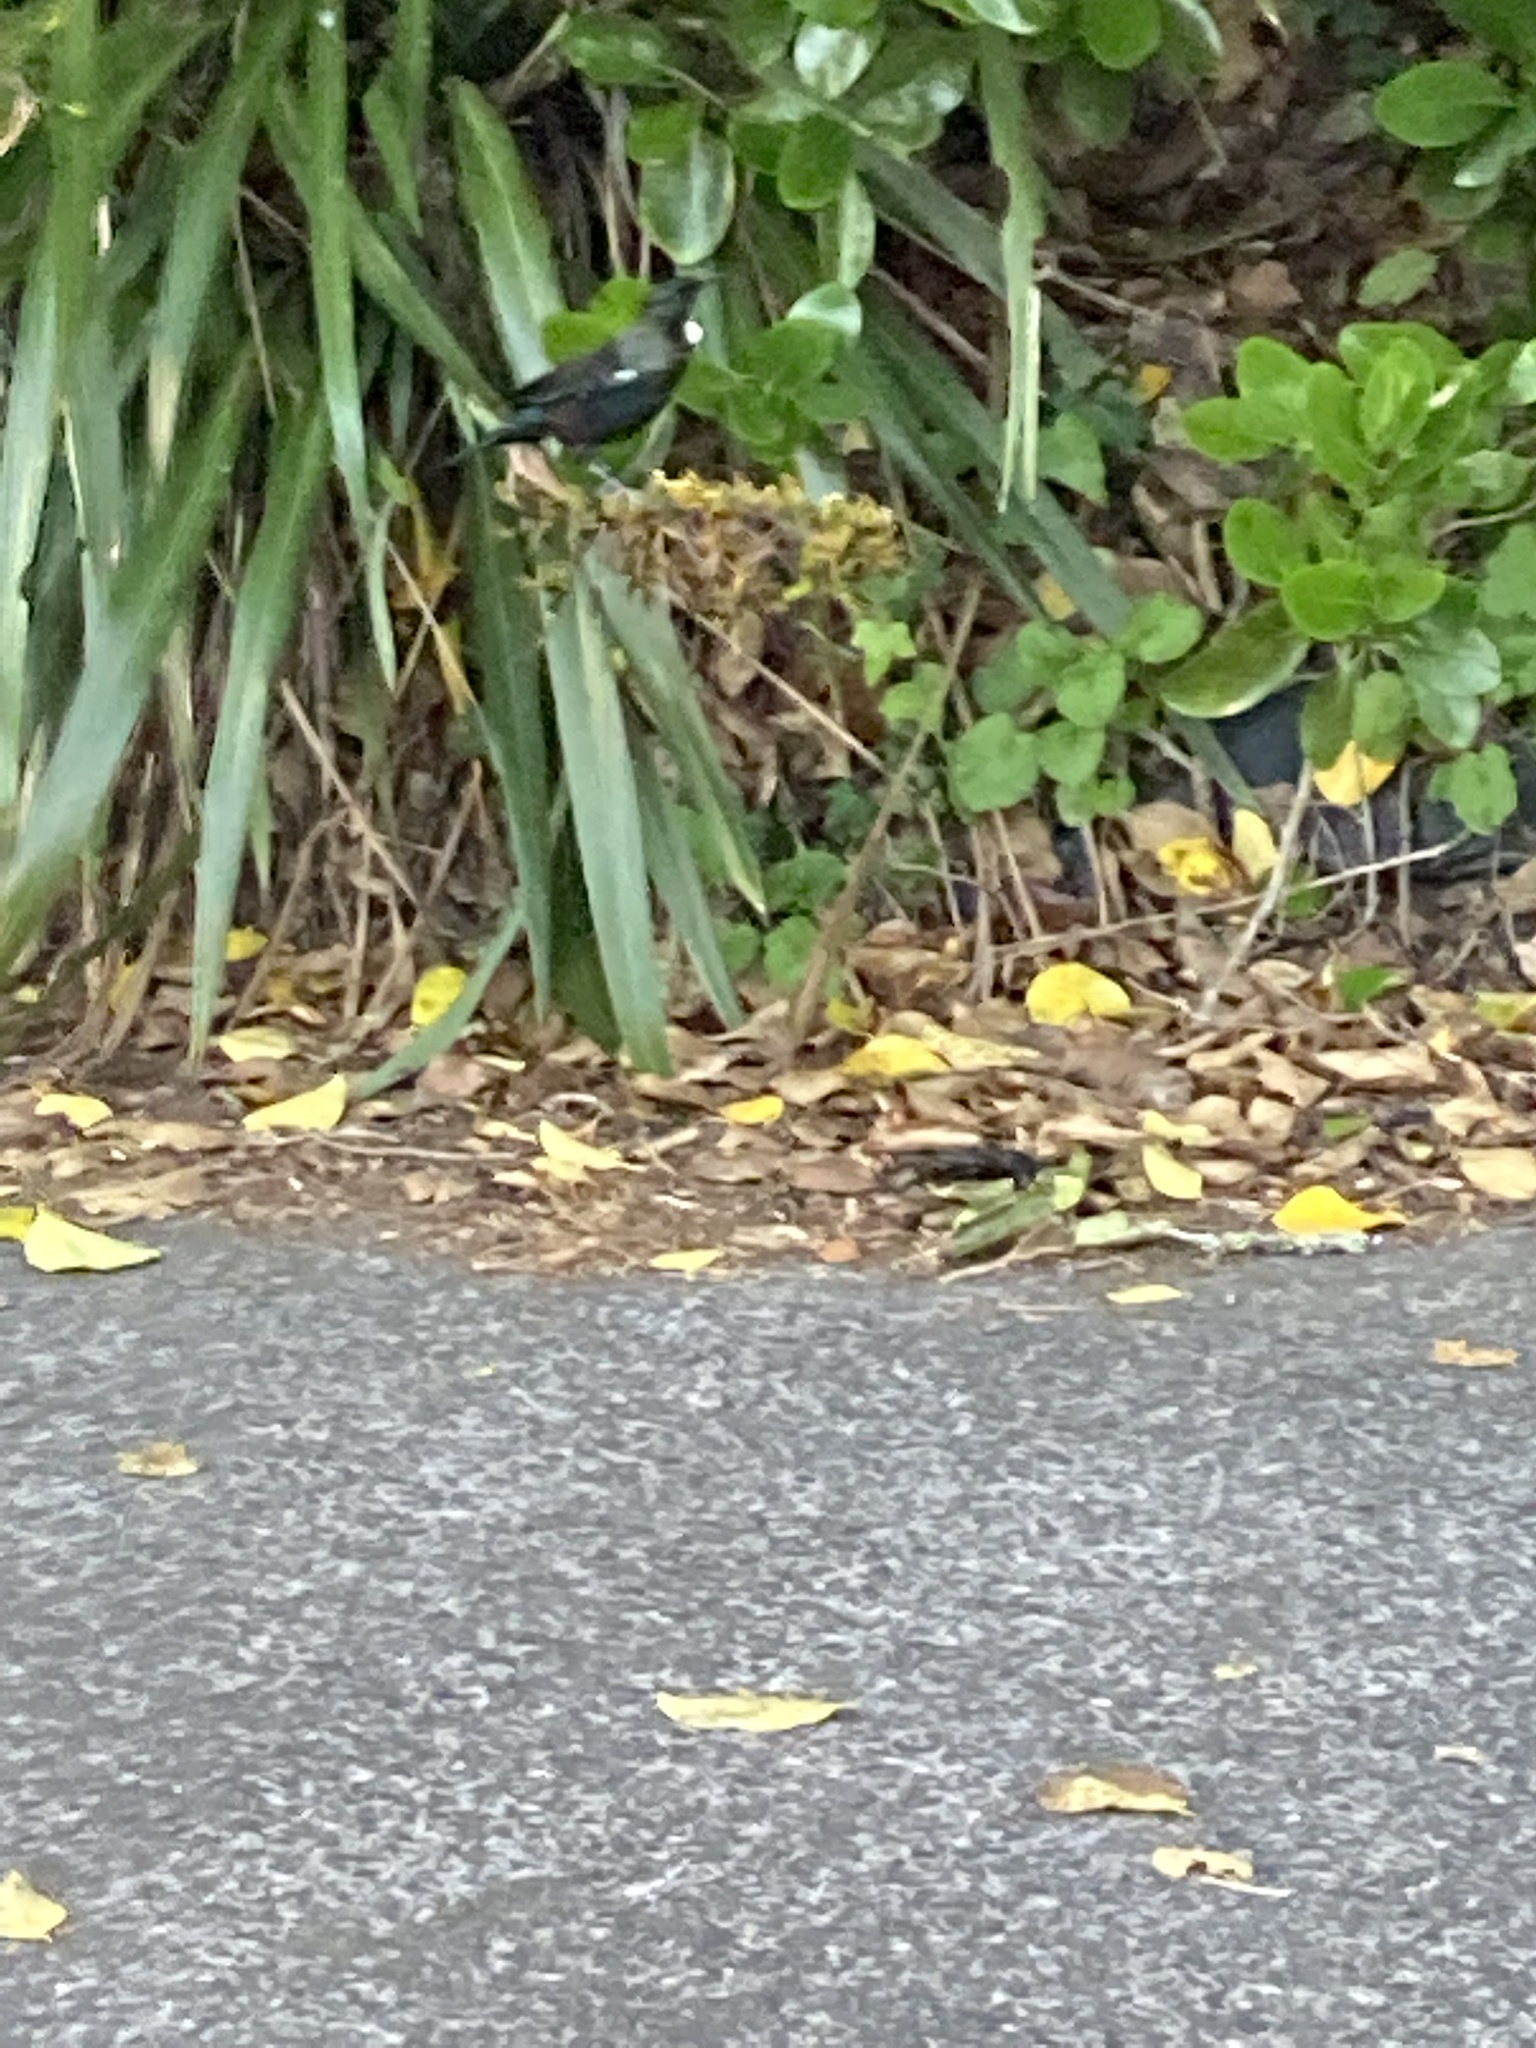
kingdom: Animalia
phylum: Chordata
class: Aves
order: Passeriformes
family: Meliphagidae
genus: Prosthemadera
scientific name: Prosthemadera novaeseelandiae
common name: Tui
